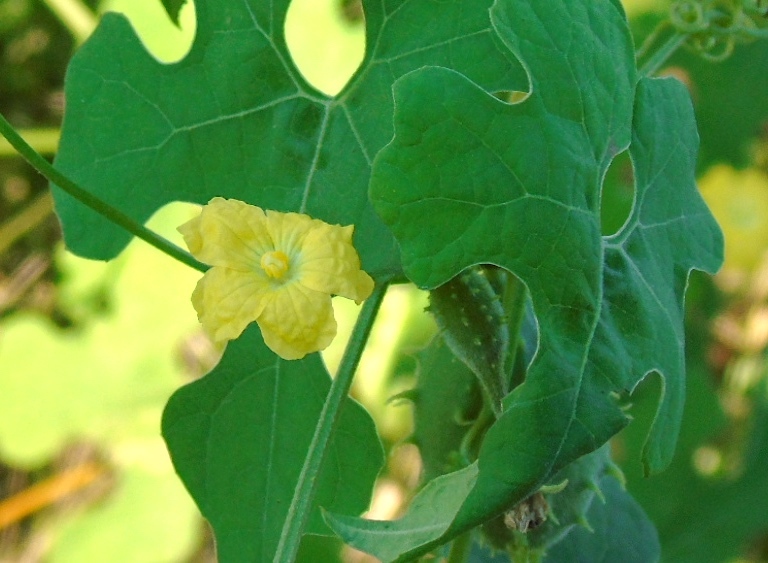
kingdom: Plantae
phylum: Tracheophyta
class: Magnoliopsida
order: Cucurbitales
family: Cucurbitaceae
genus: Luffa
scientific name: Luffa
